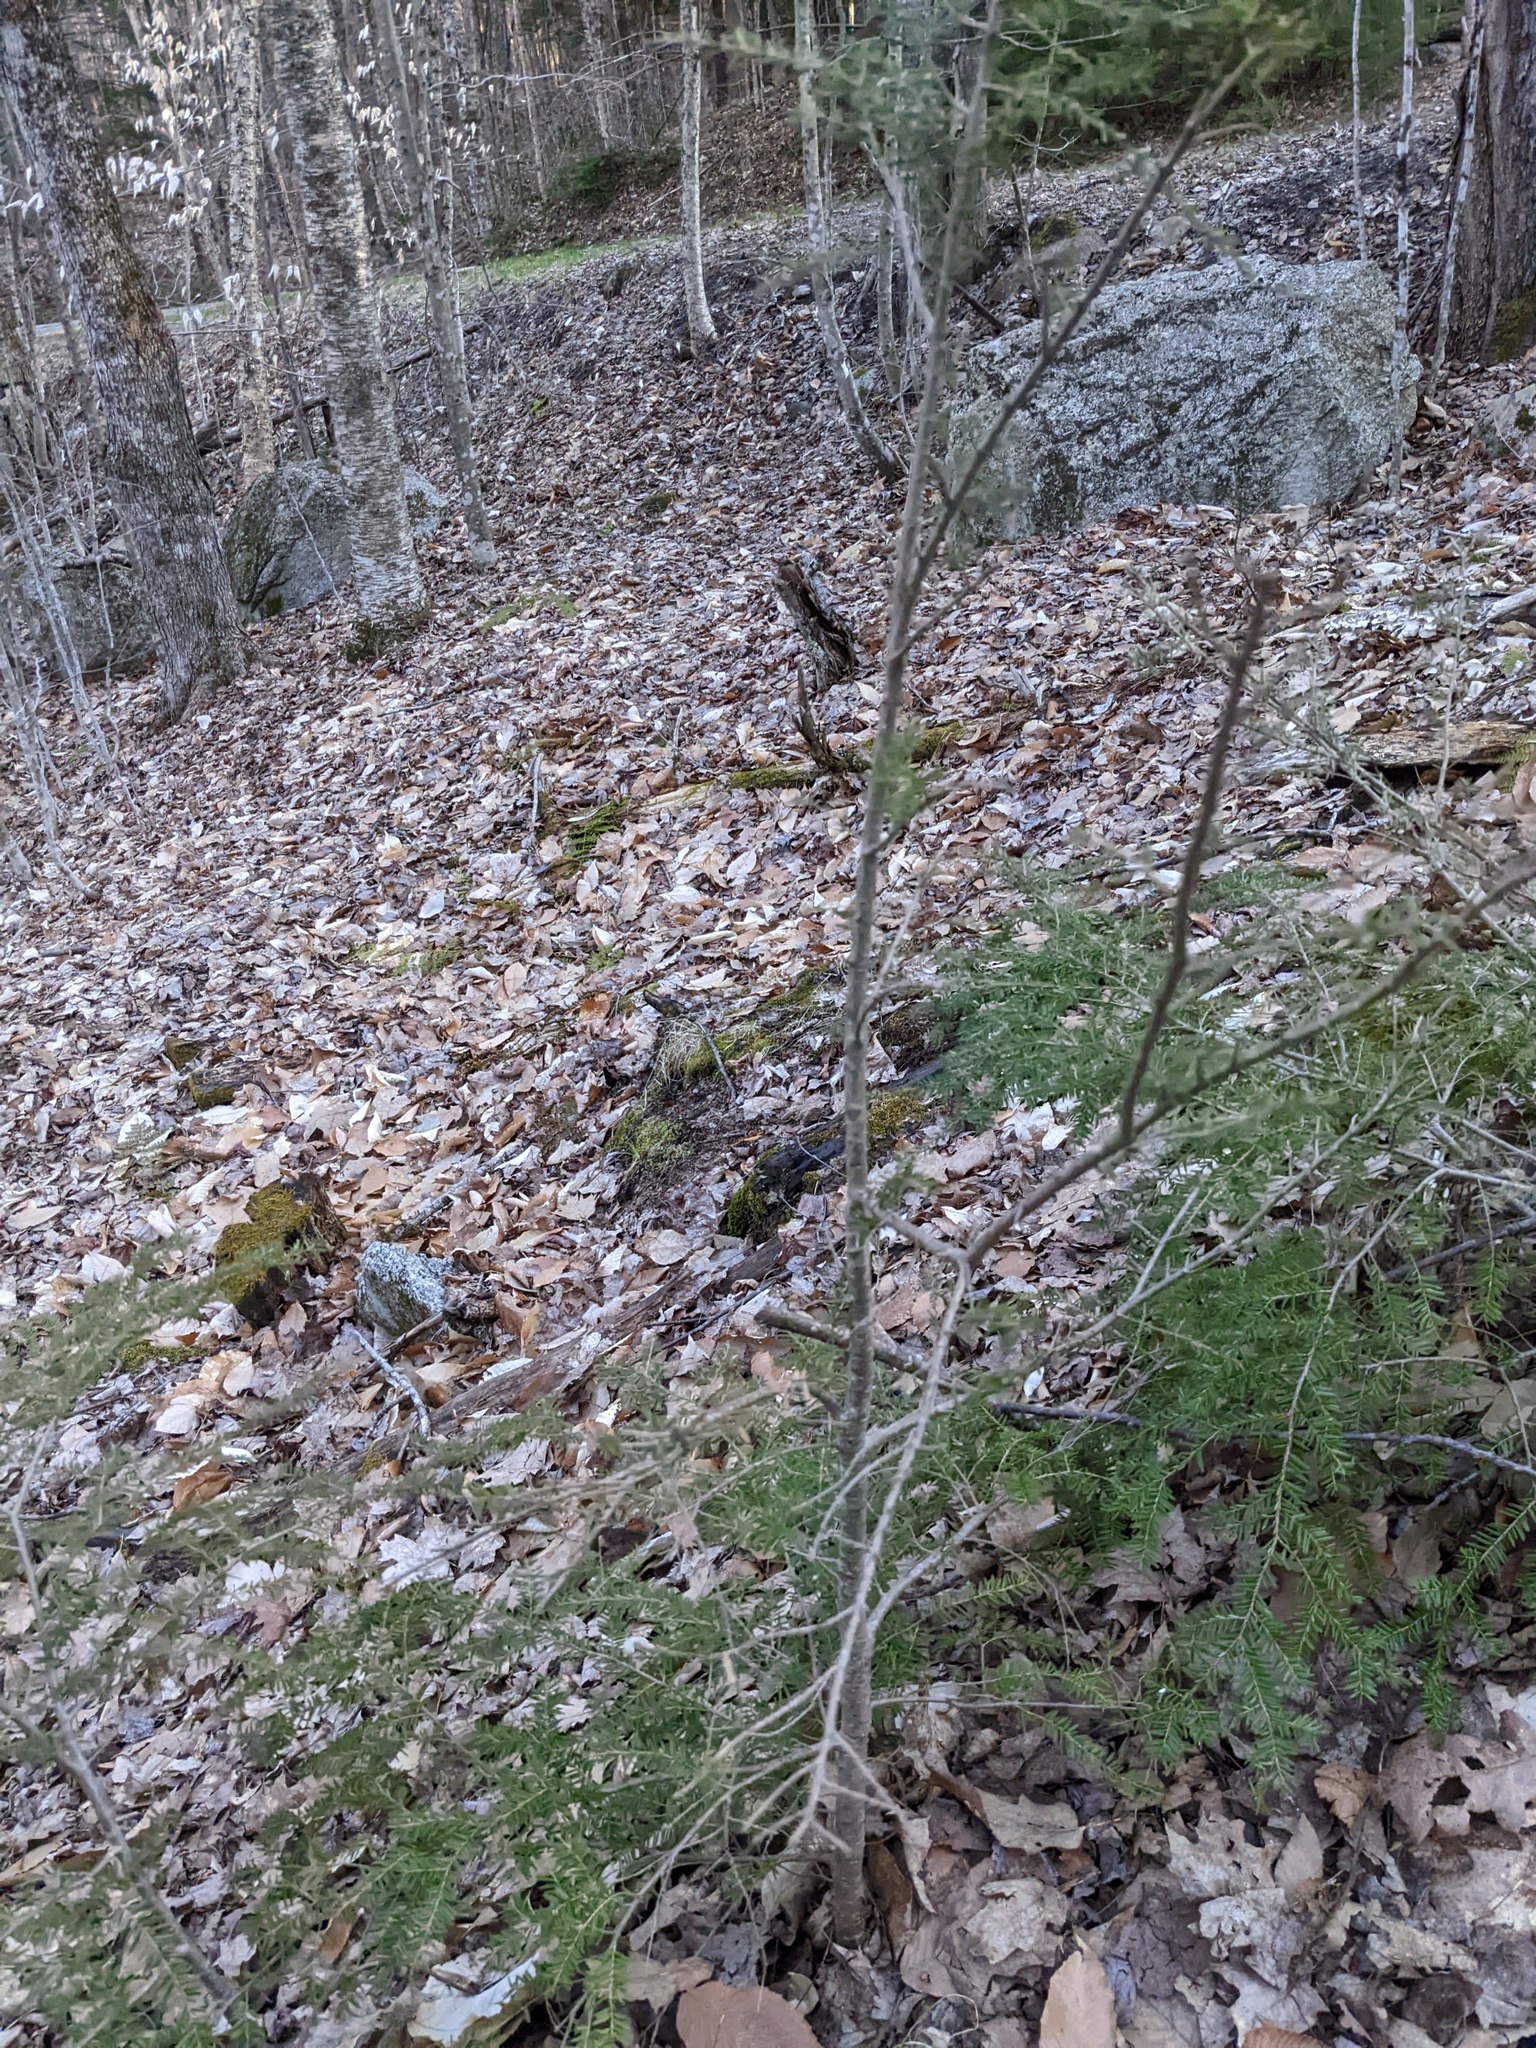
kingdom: Plantae
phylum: Tracheophyta
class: Pinopsida
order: Pinales
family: Pinaceae
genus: Tsuga
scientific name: Tsuga canadensis
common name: Eastern hemlock
